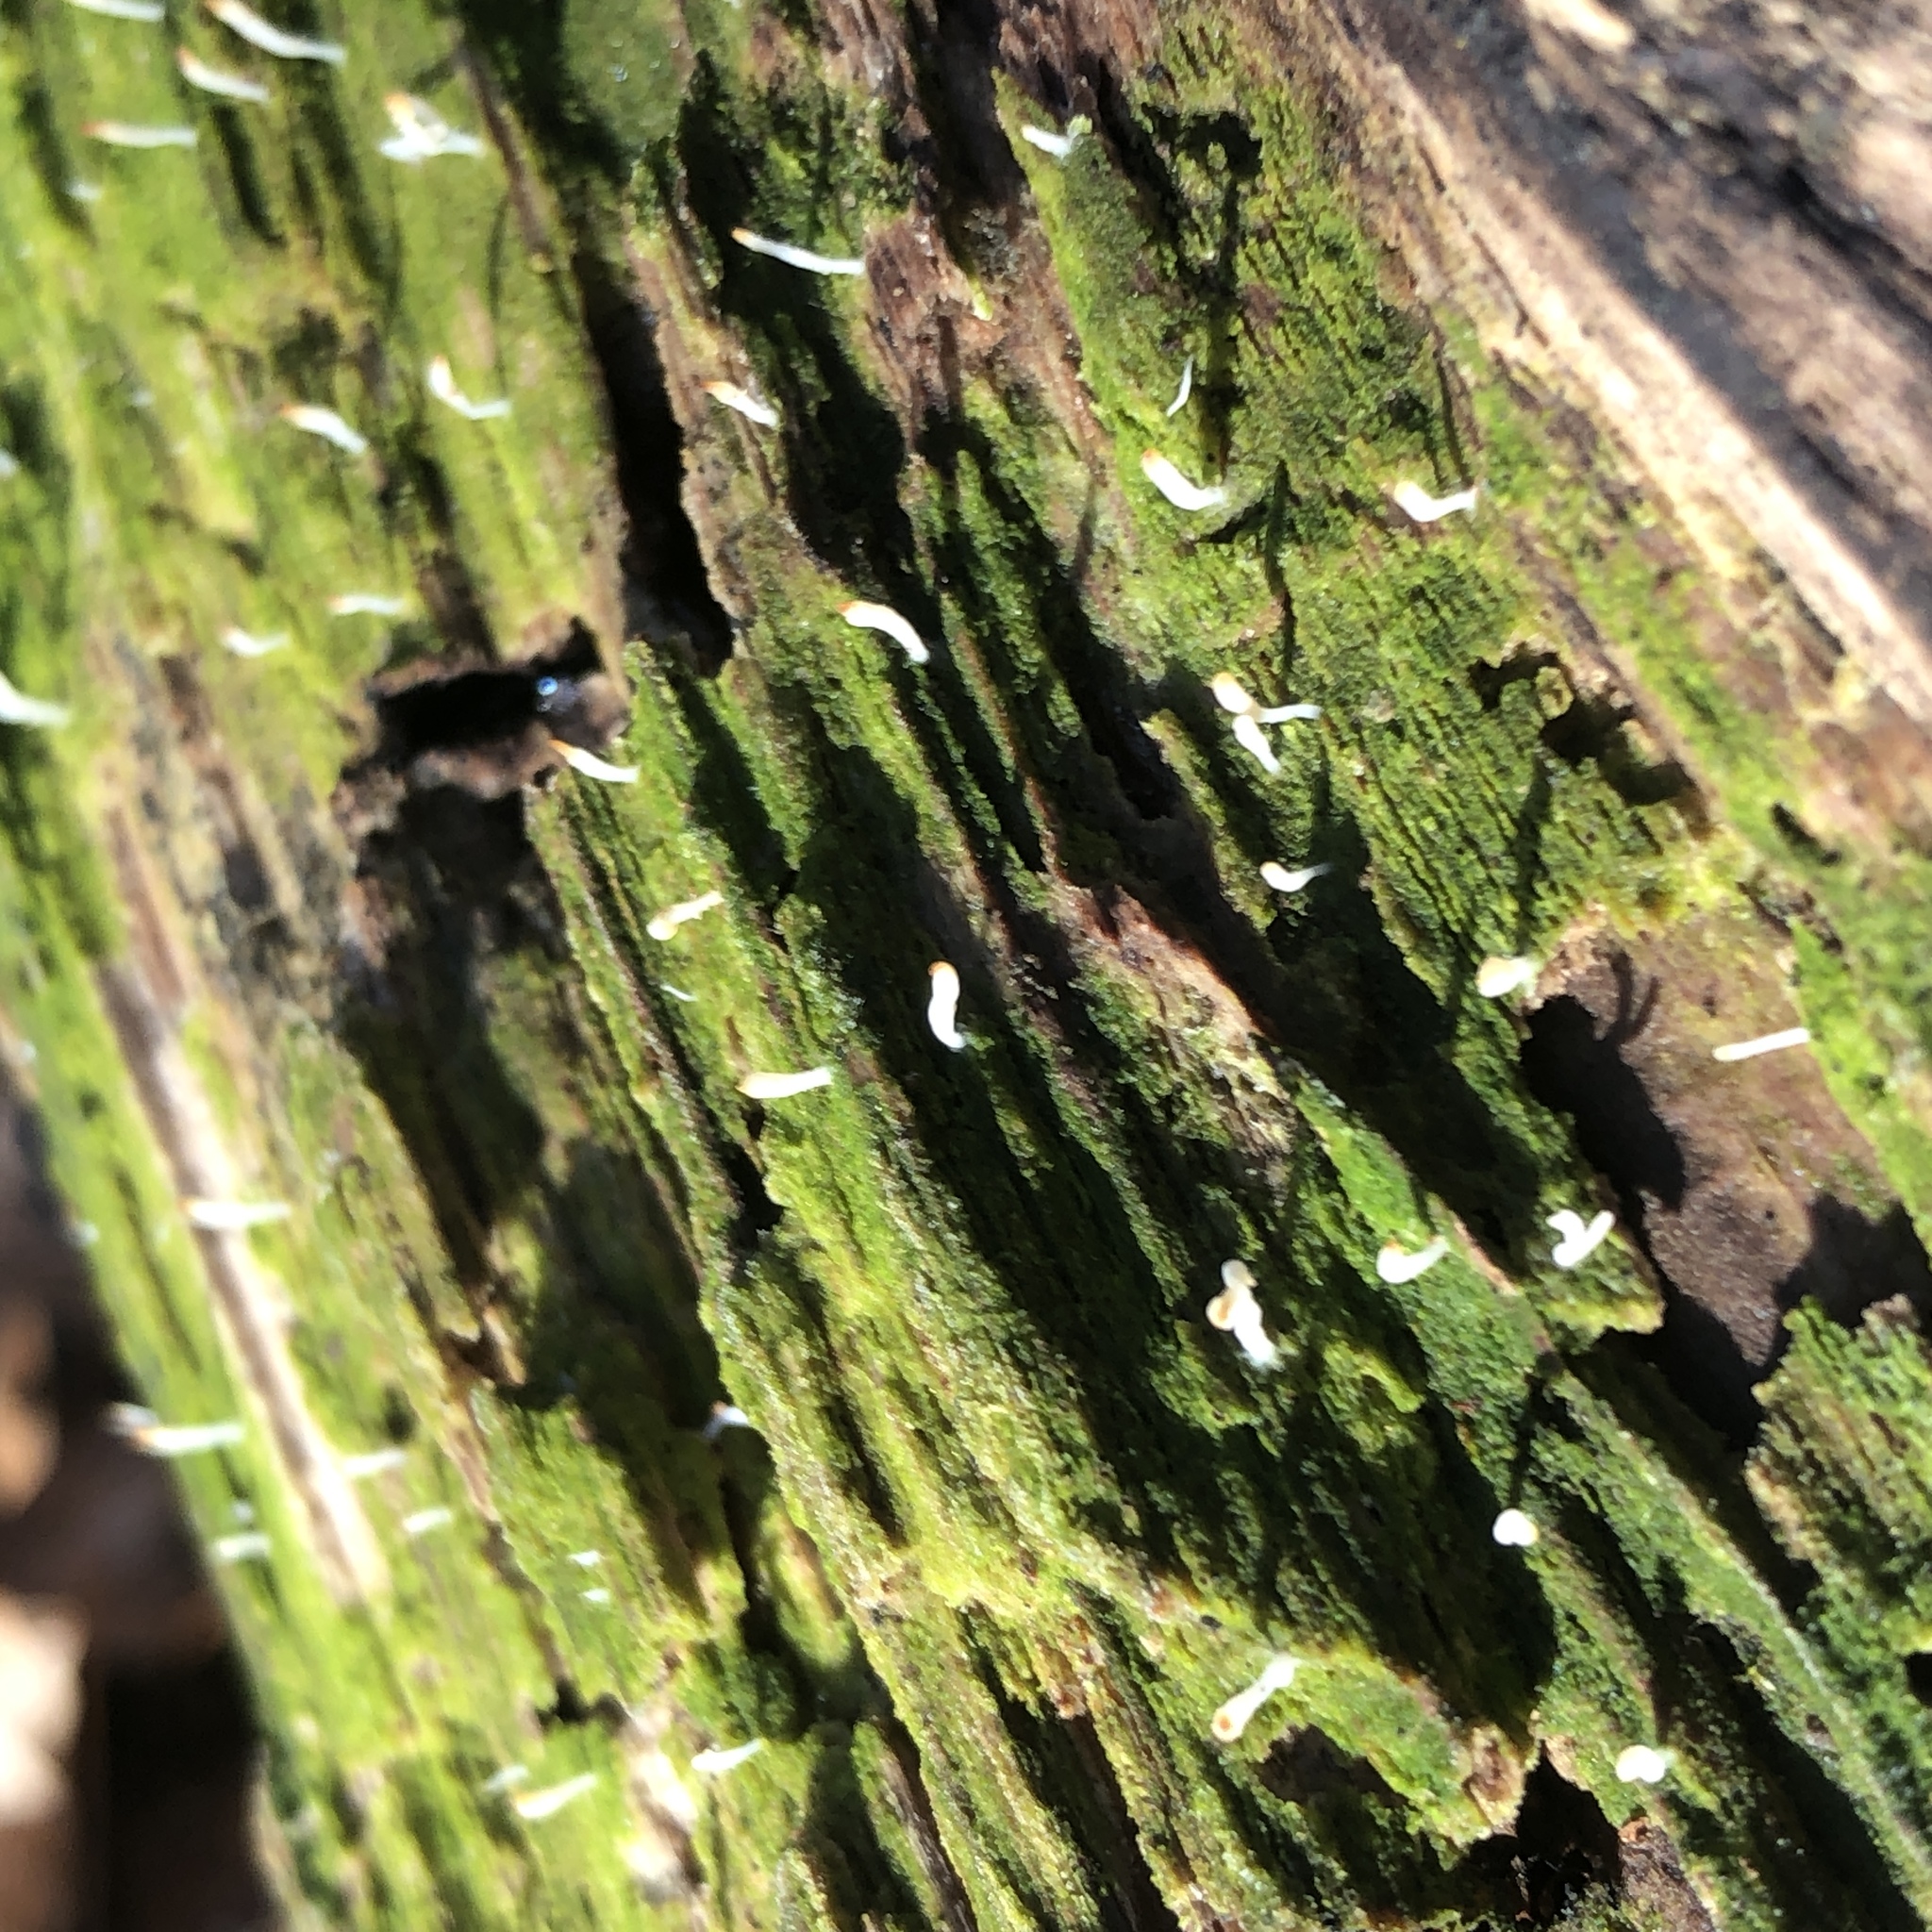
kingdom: Fungi
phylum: Basidiomycota
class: Agaricomycetes
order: Cantharellales
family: Hydnaceae
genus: Multiclavula
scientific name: Multiclavula mucida
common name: White green-algae coral
